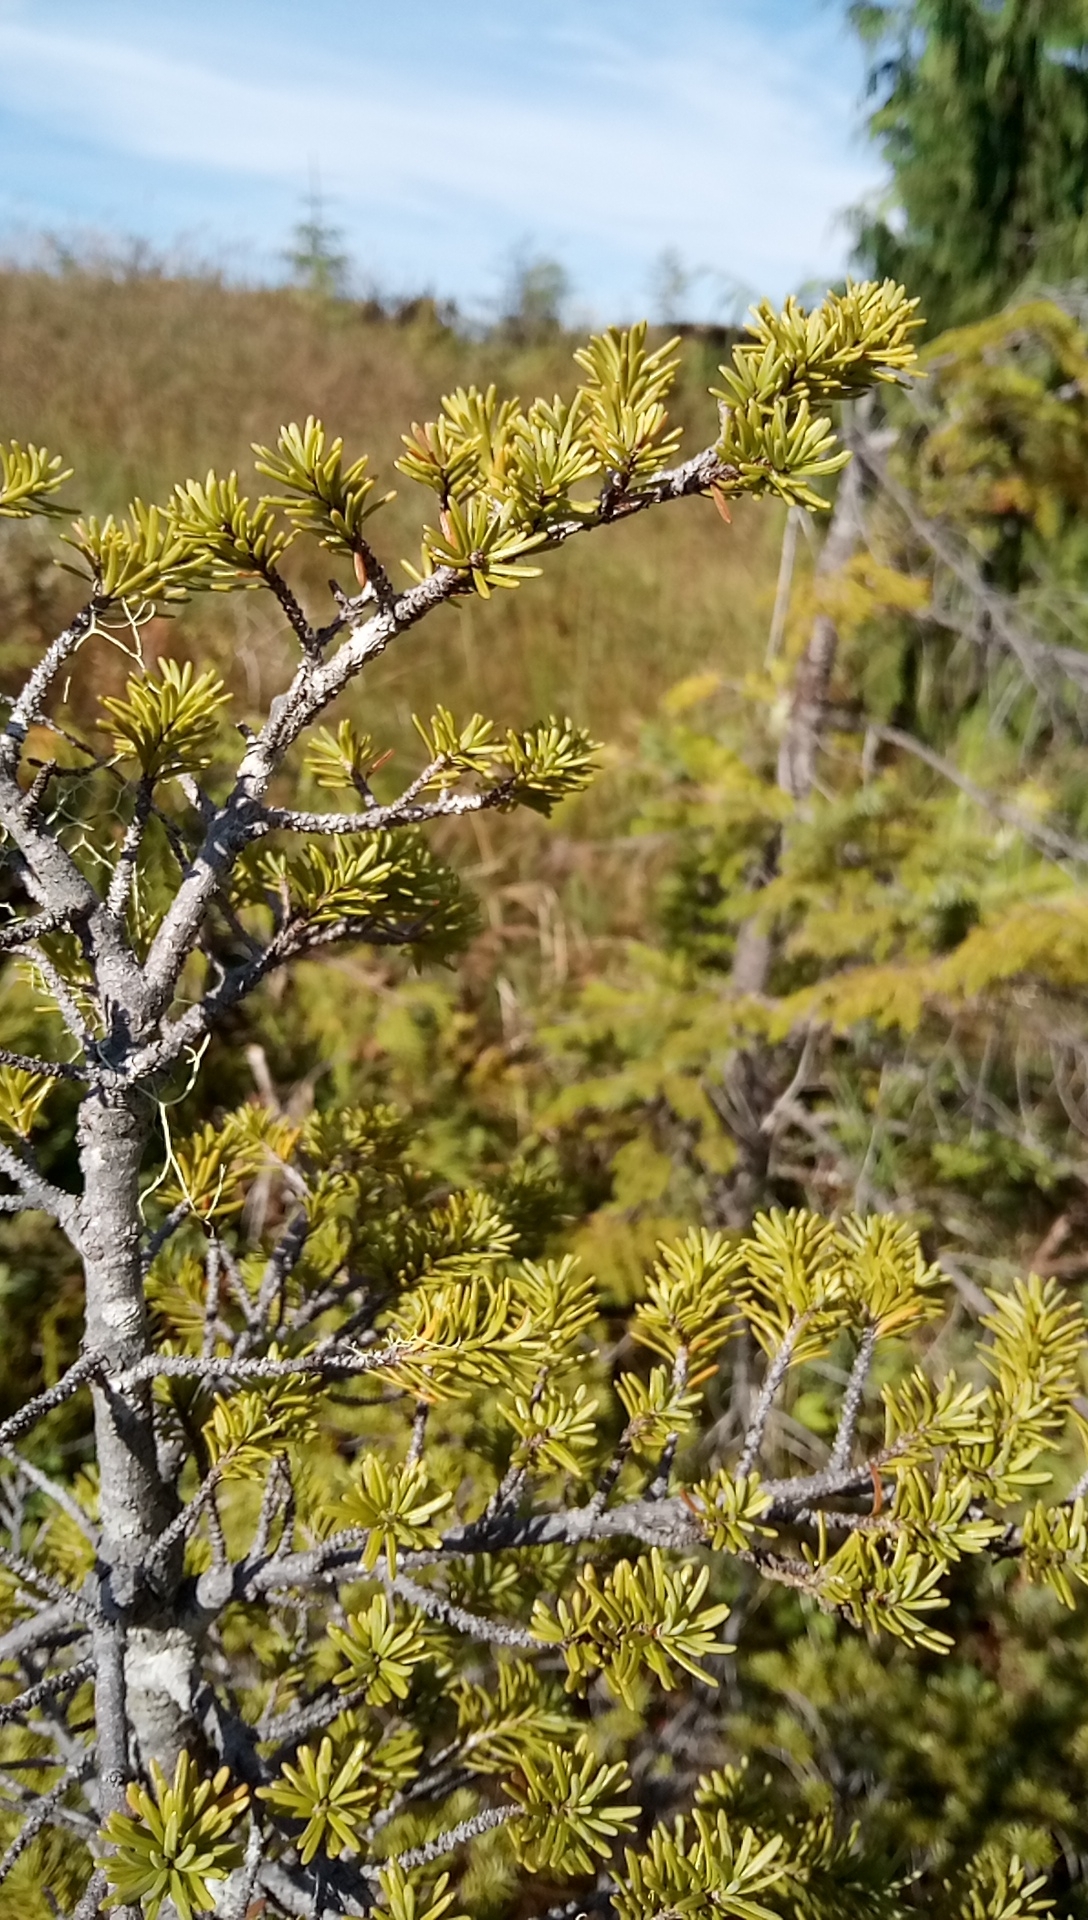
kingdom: Plantae
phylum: Tracheophyta
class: Pinopsida
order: Pinales
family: Pinaceae
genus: Tsuga
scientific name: Tsuga mertensiana
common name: Mountain hemlock
